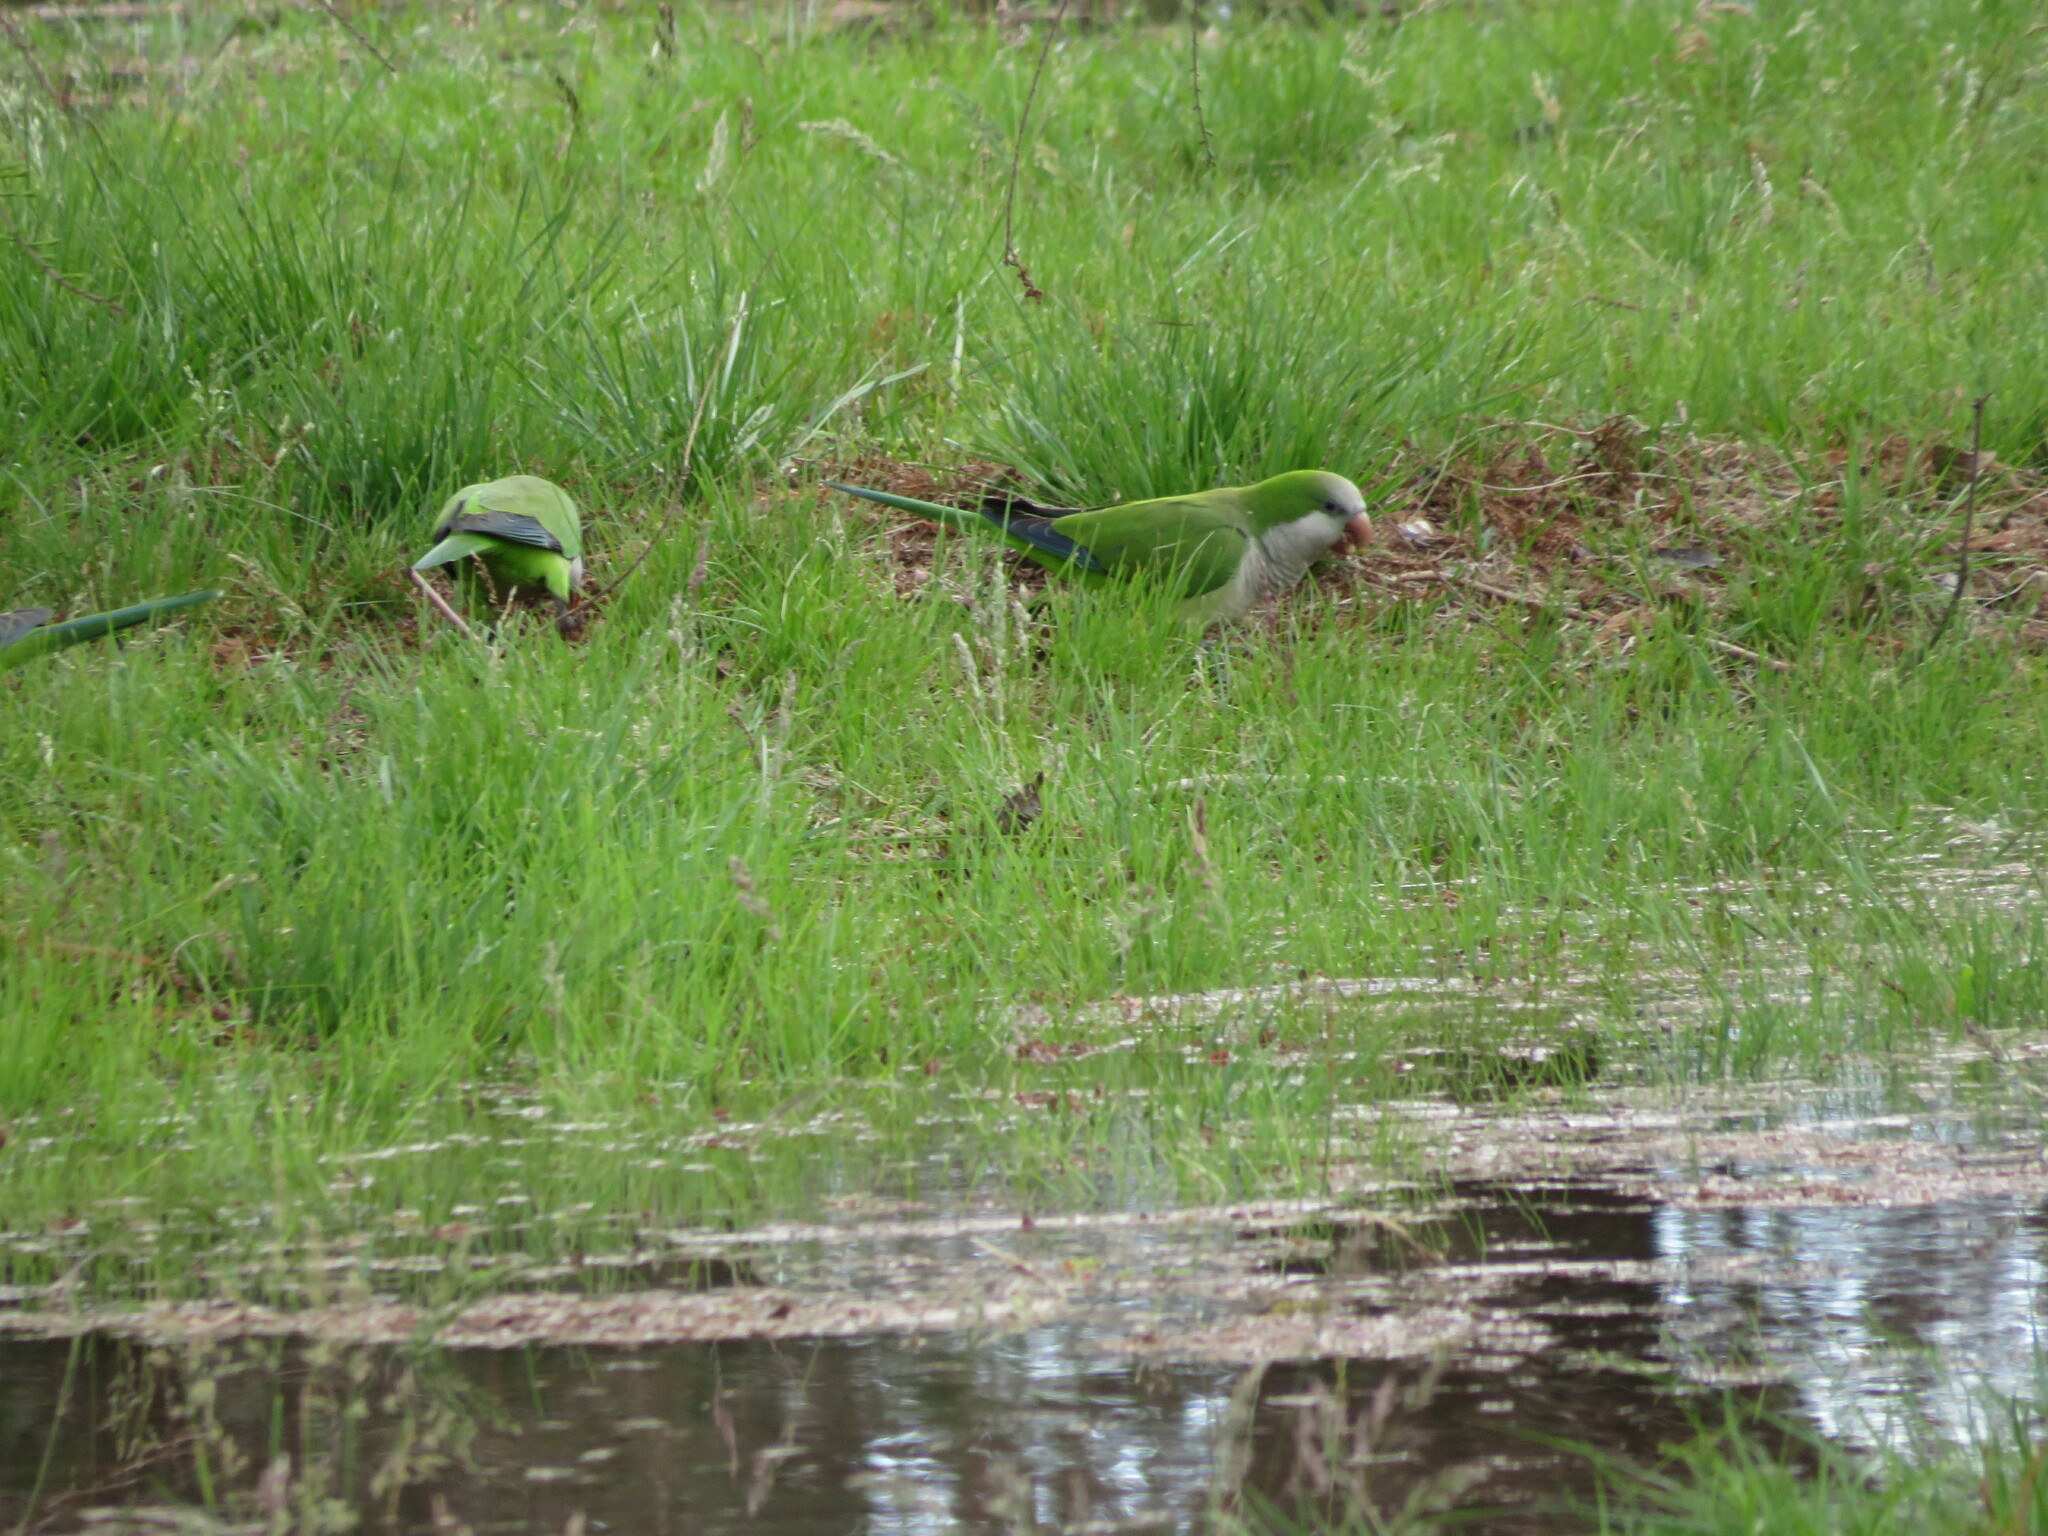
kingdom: Animalia
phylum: Chordata
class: Aves
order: Psittaciformes
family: Psittacidae
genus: Myiopsitta
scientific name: Myiopsitta monachus
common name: Monk parakeet
